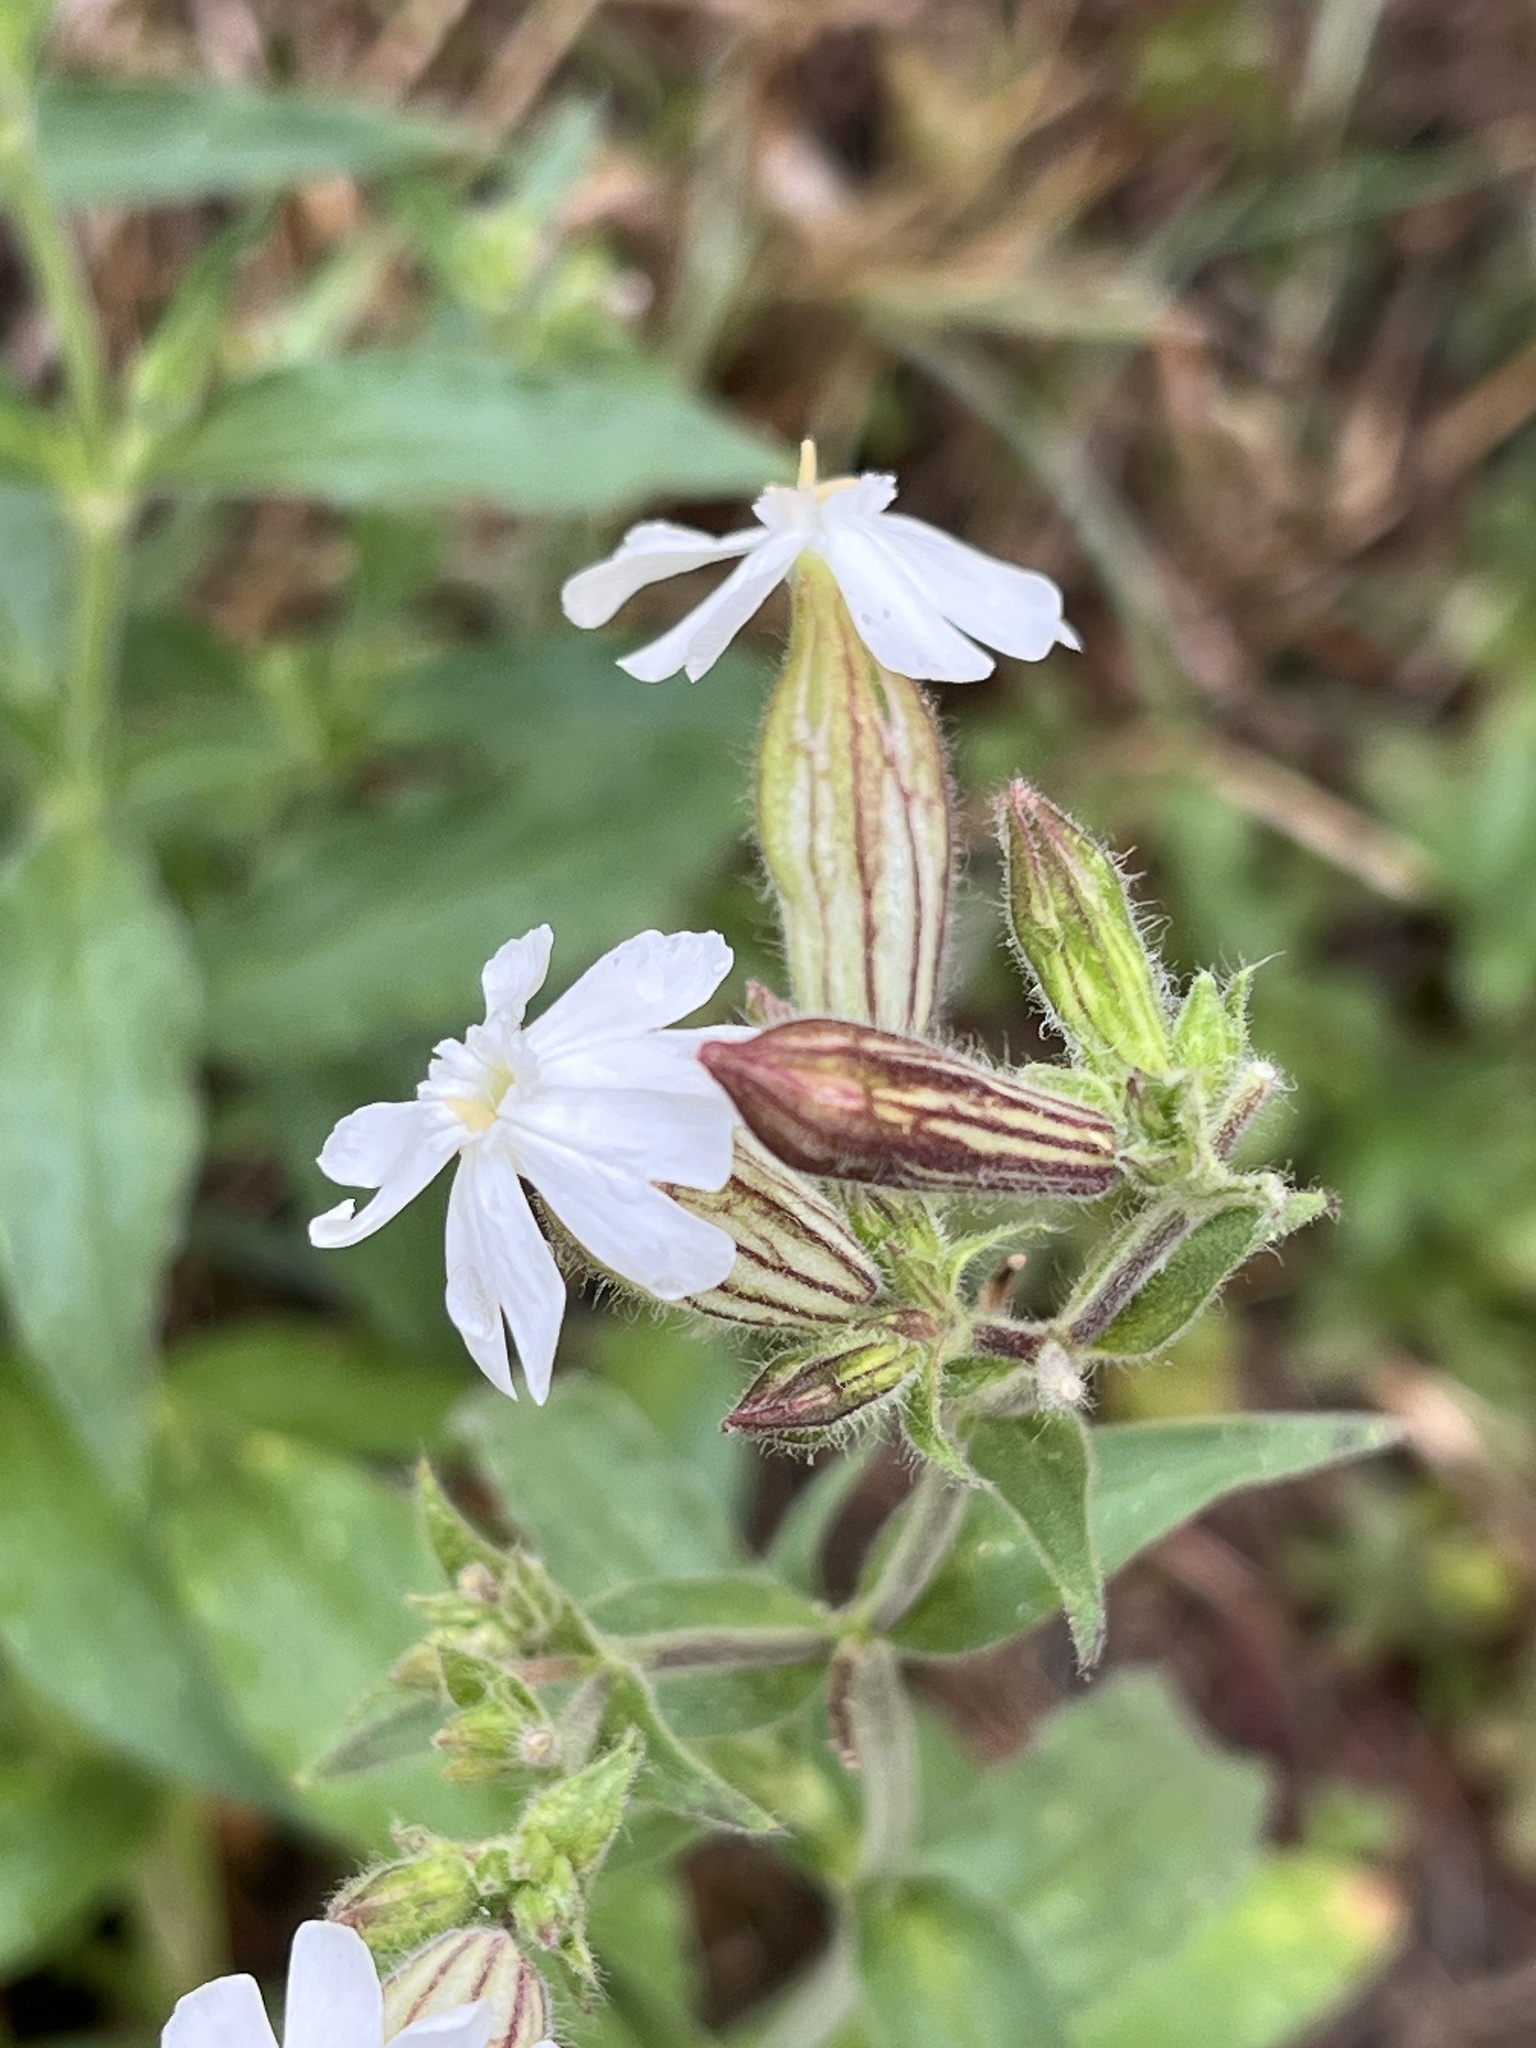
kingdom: Plantae
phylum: Tracheophyta
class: Magnoliopsida
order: Caryophyllales
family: Caryophyllaceae
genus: Silene
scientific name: Silene latifolia
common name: White campion
